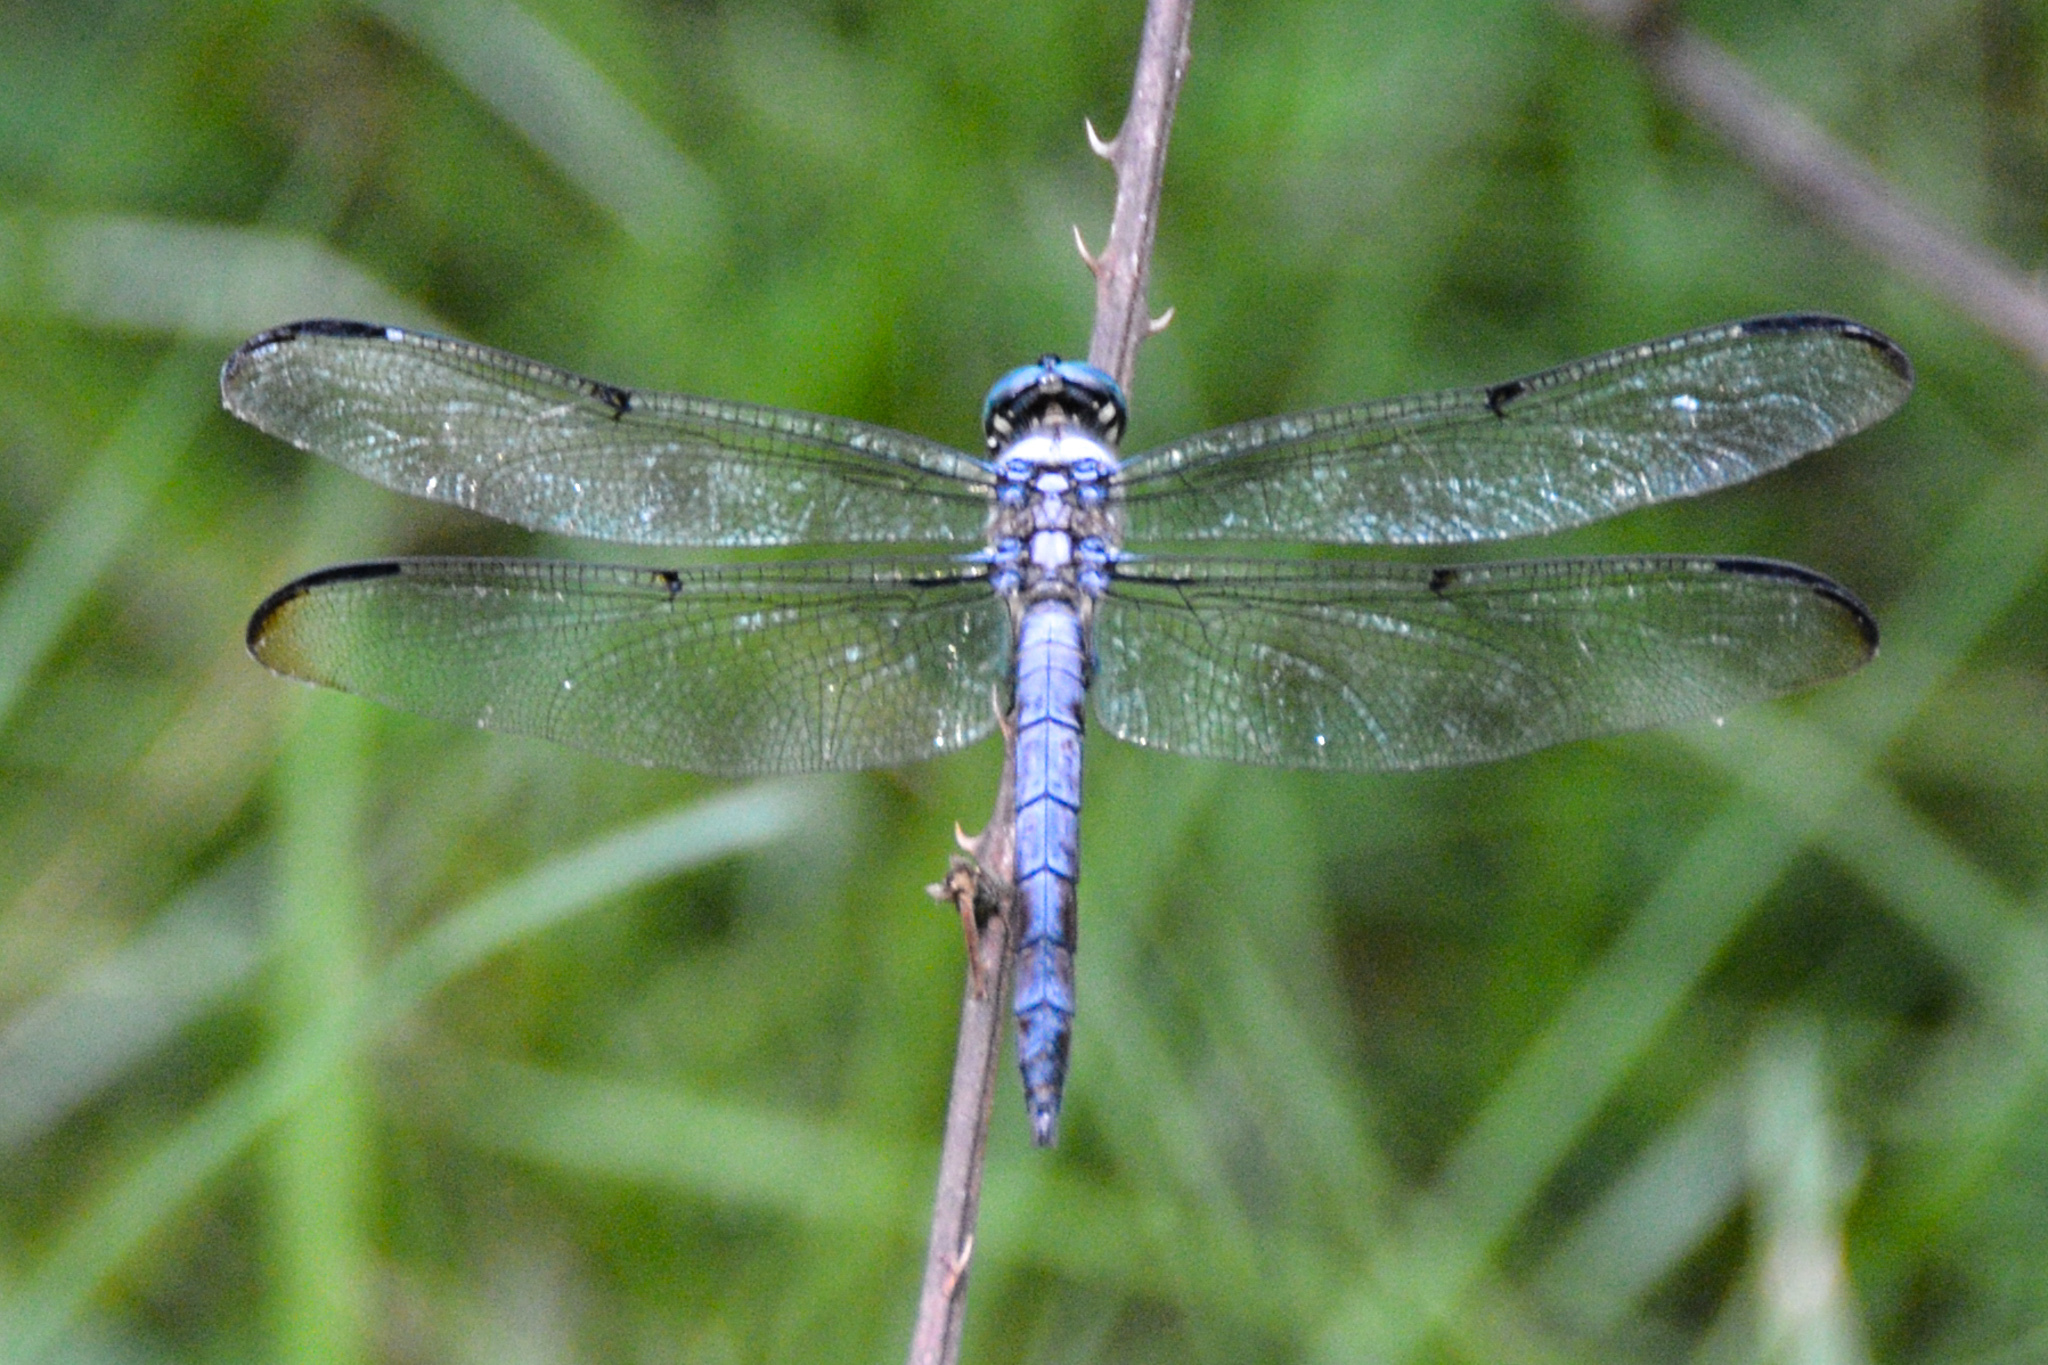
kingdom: Animalia
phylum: Arthropoda
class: Insecta
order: Odonata
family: Libellulidae
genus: Libellula
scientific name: Libellula vibrans
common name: Great blue skimmer
